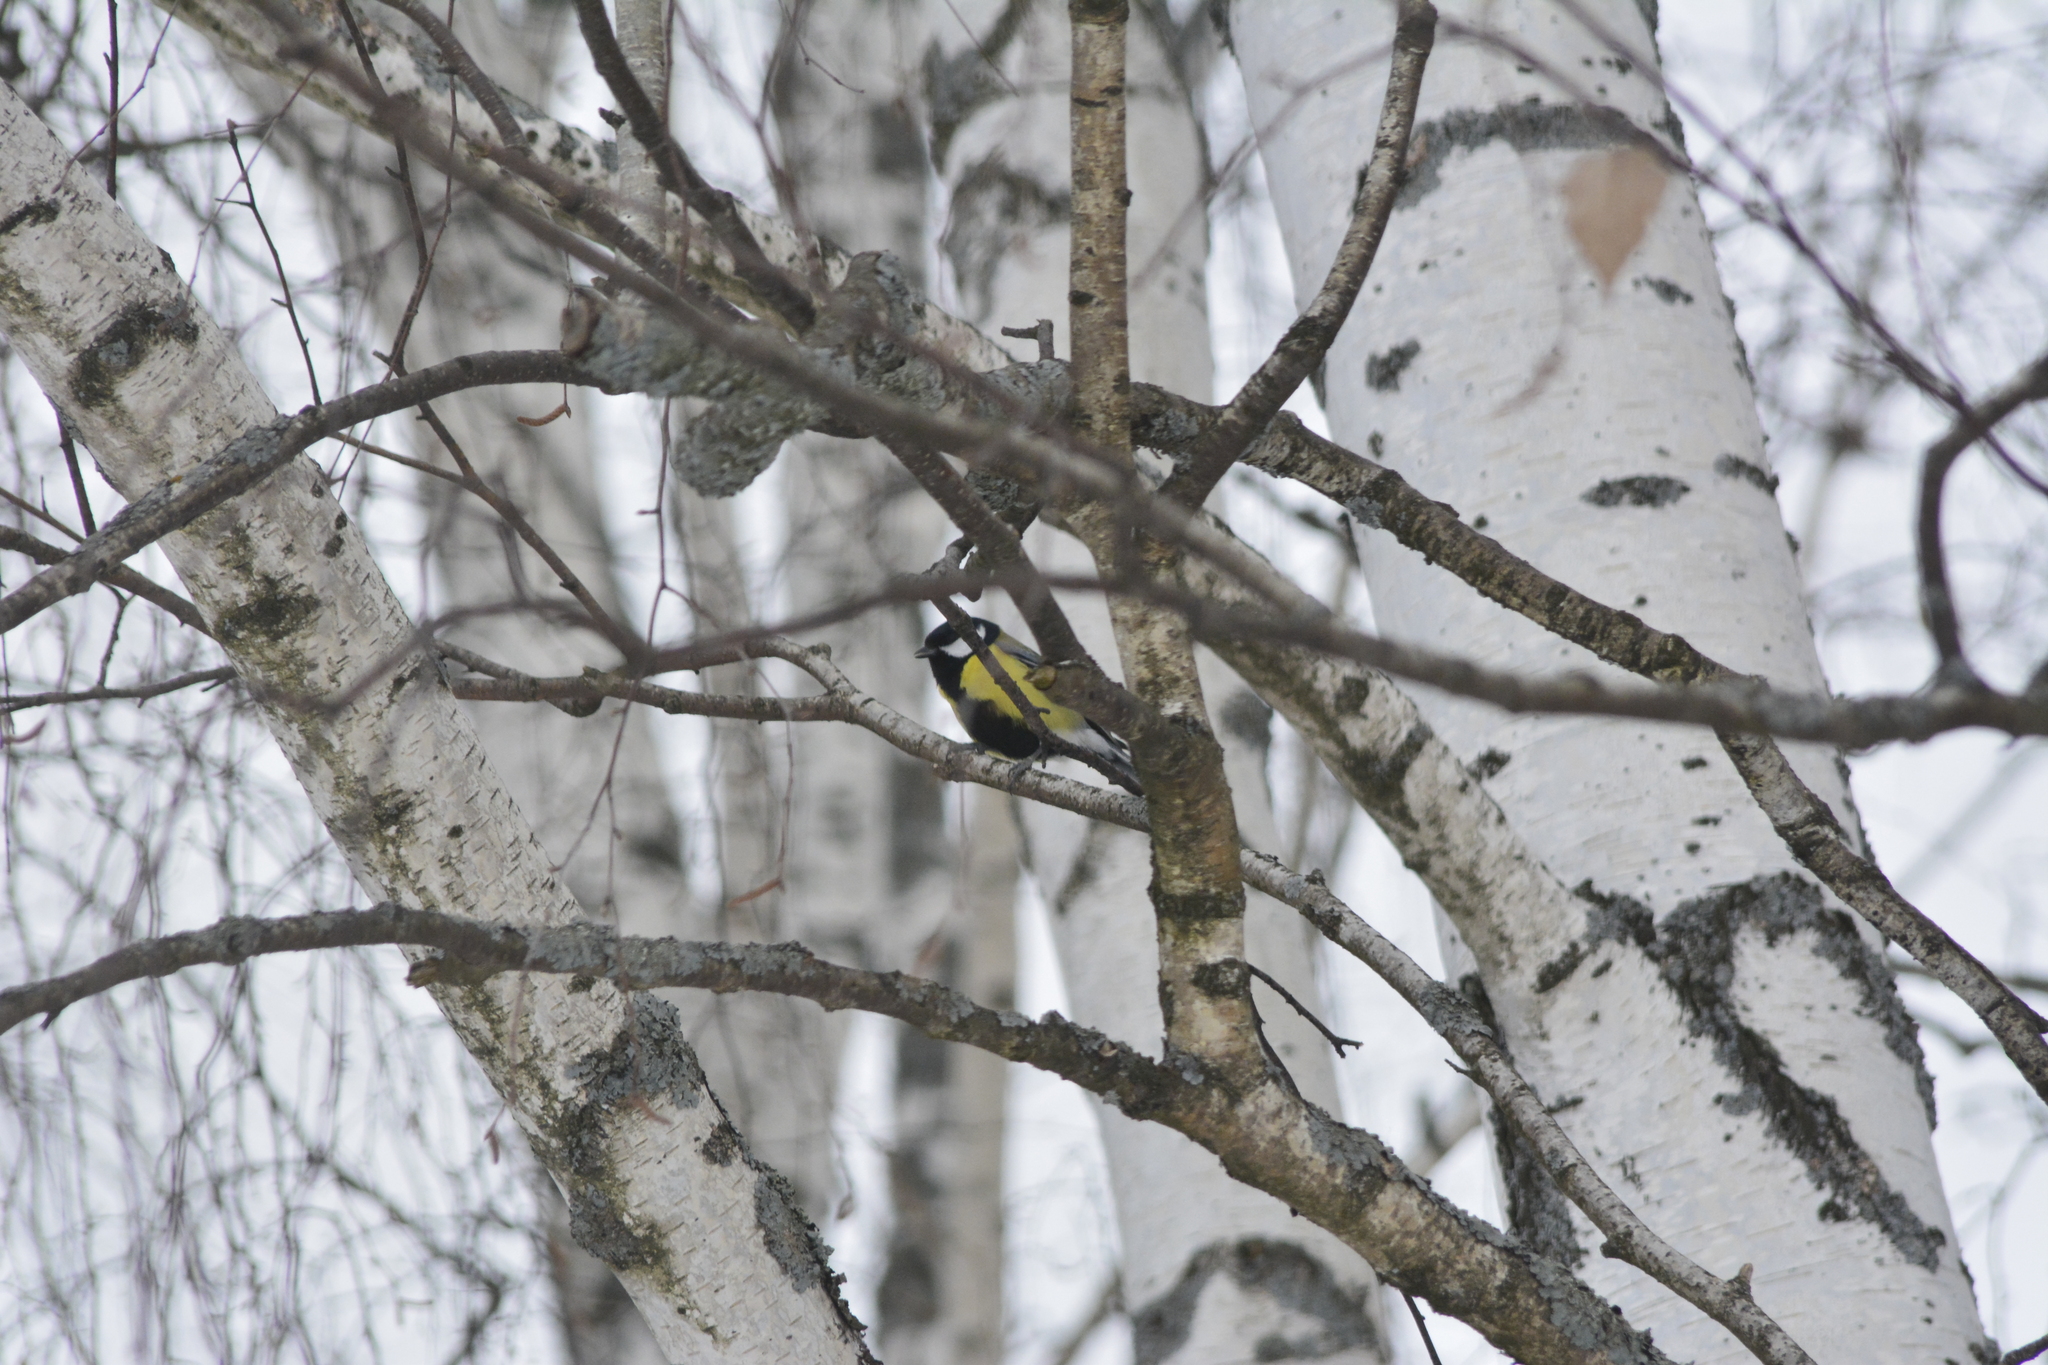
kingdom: Animalia
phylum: Chordata
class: Aves
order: Passeriformes
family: Paridae
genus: Parus
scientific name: Parus major
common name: Great tit
